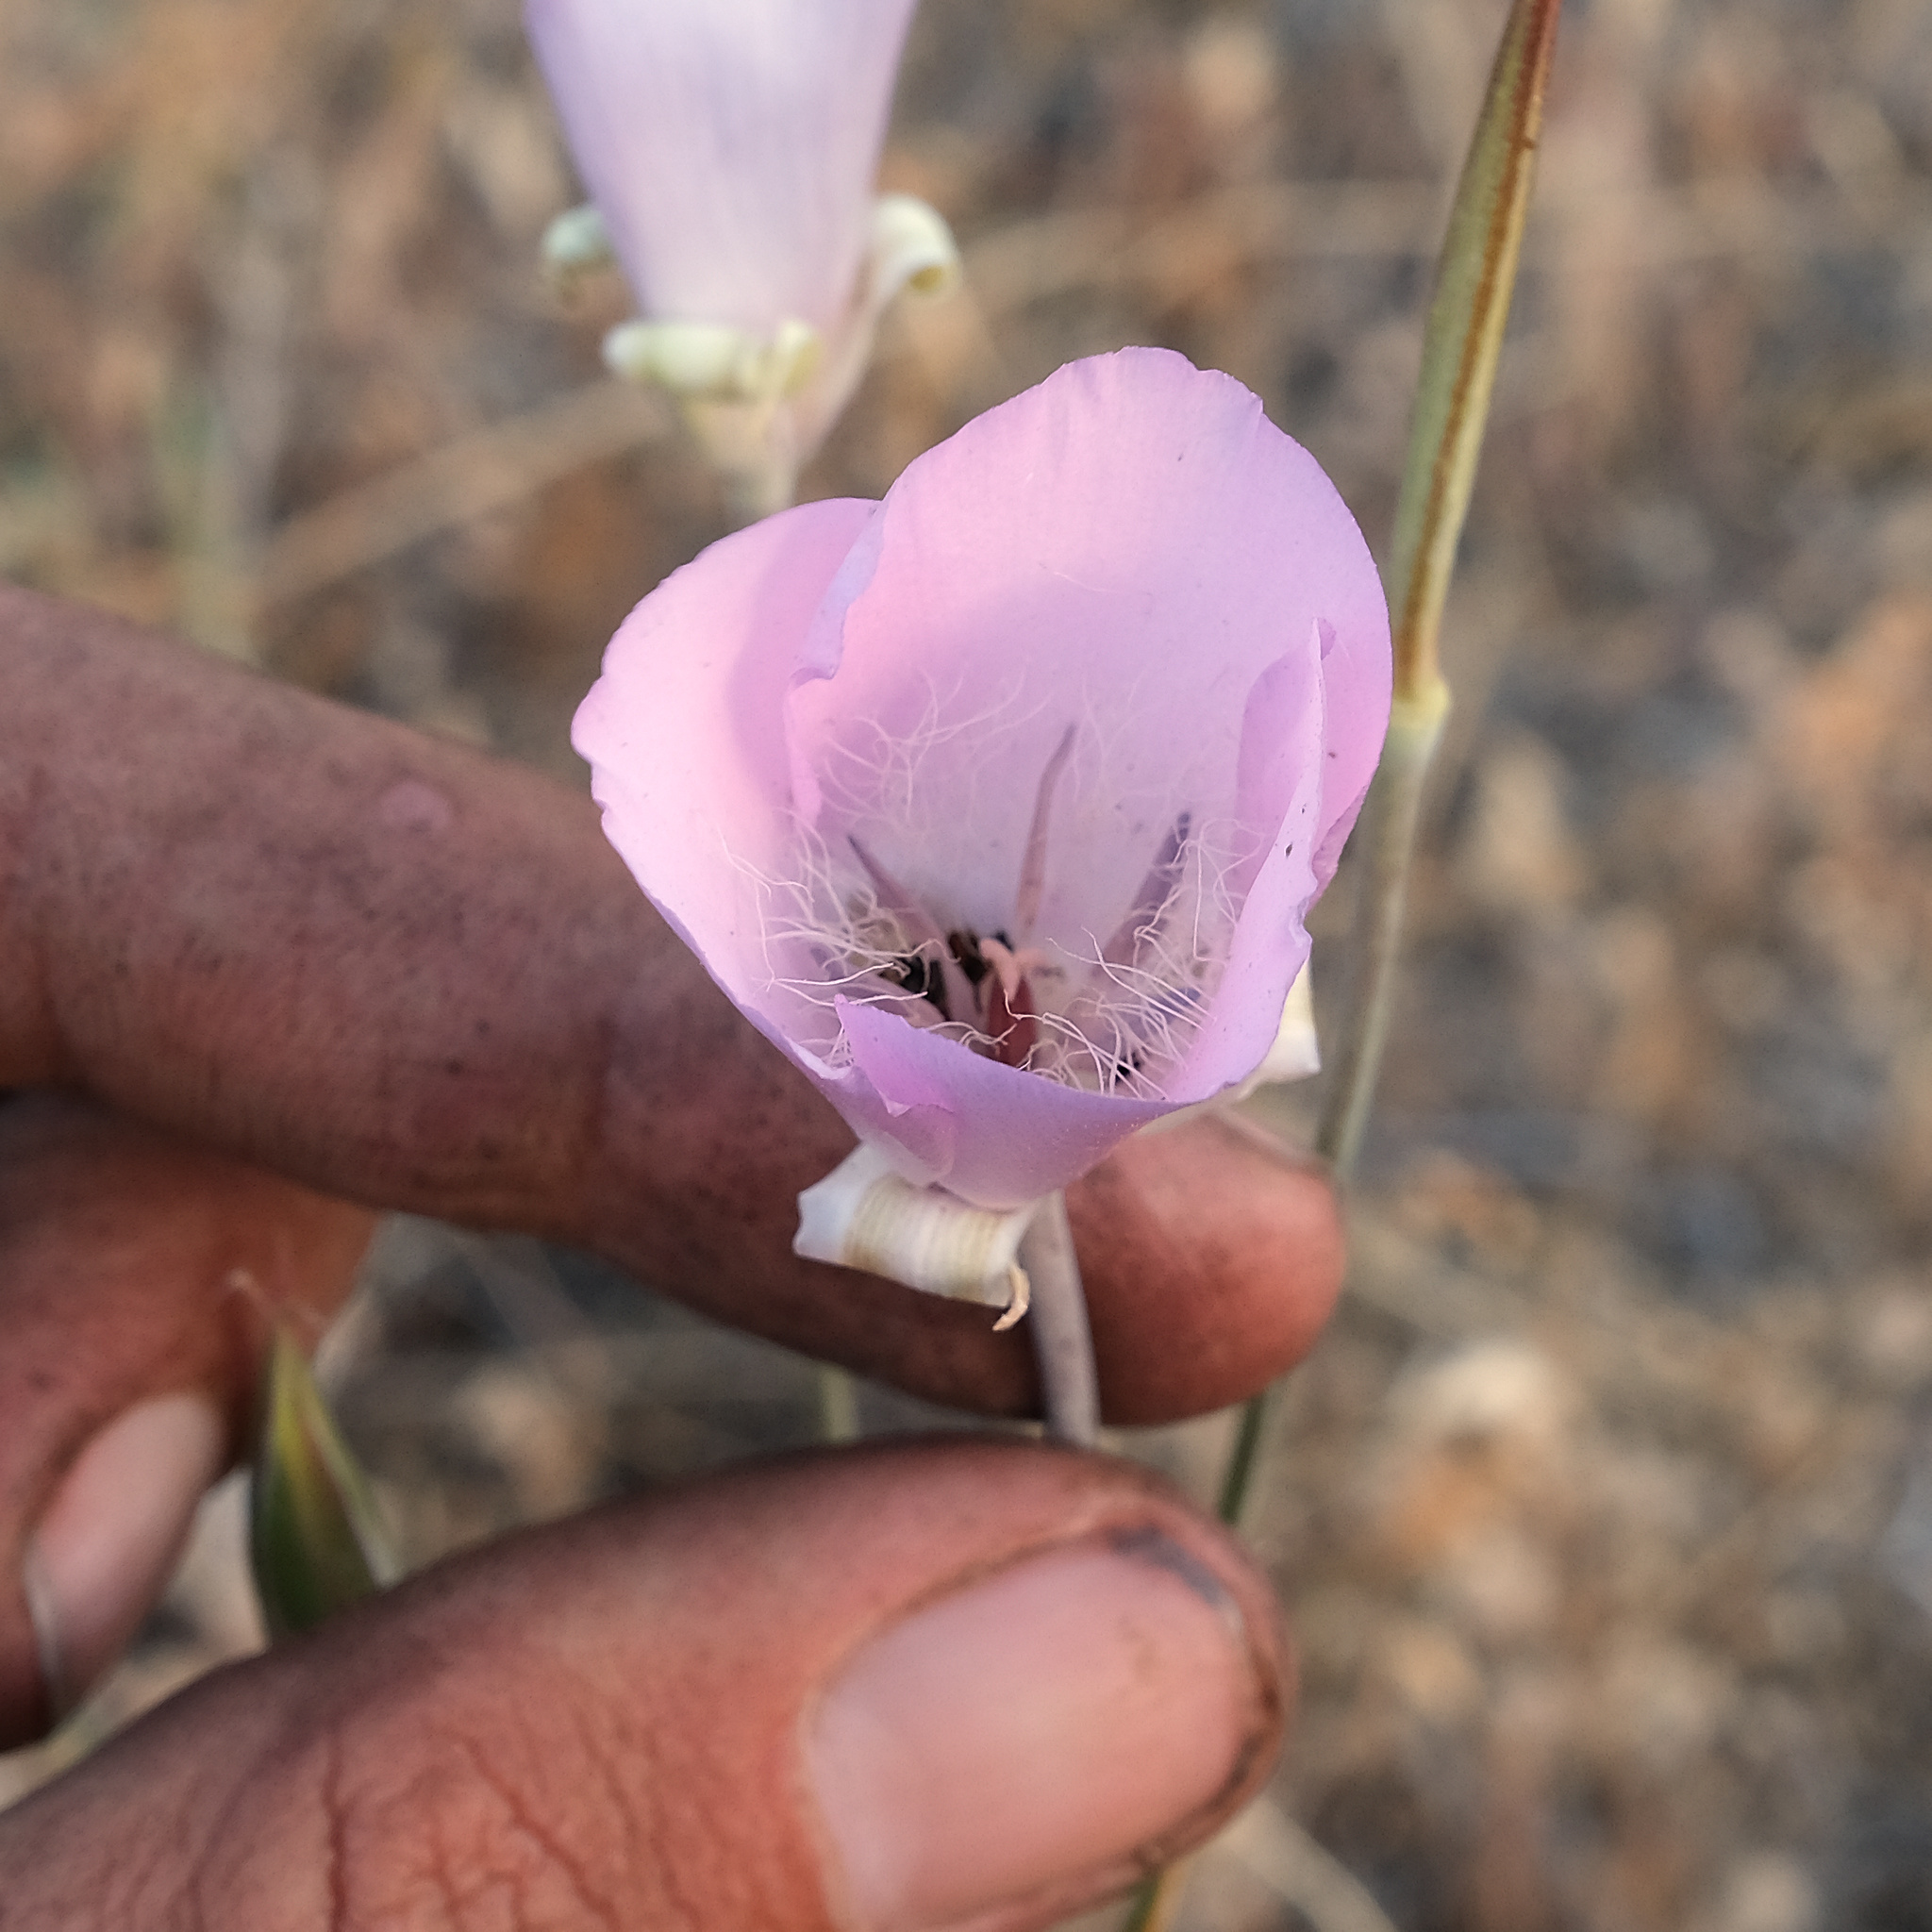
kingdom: Plantae
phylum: Tracheophyta
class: Liliopsida
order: Liliales
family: Liliaceae
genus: Calochortus
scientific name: Calochortus splendens
